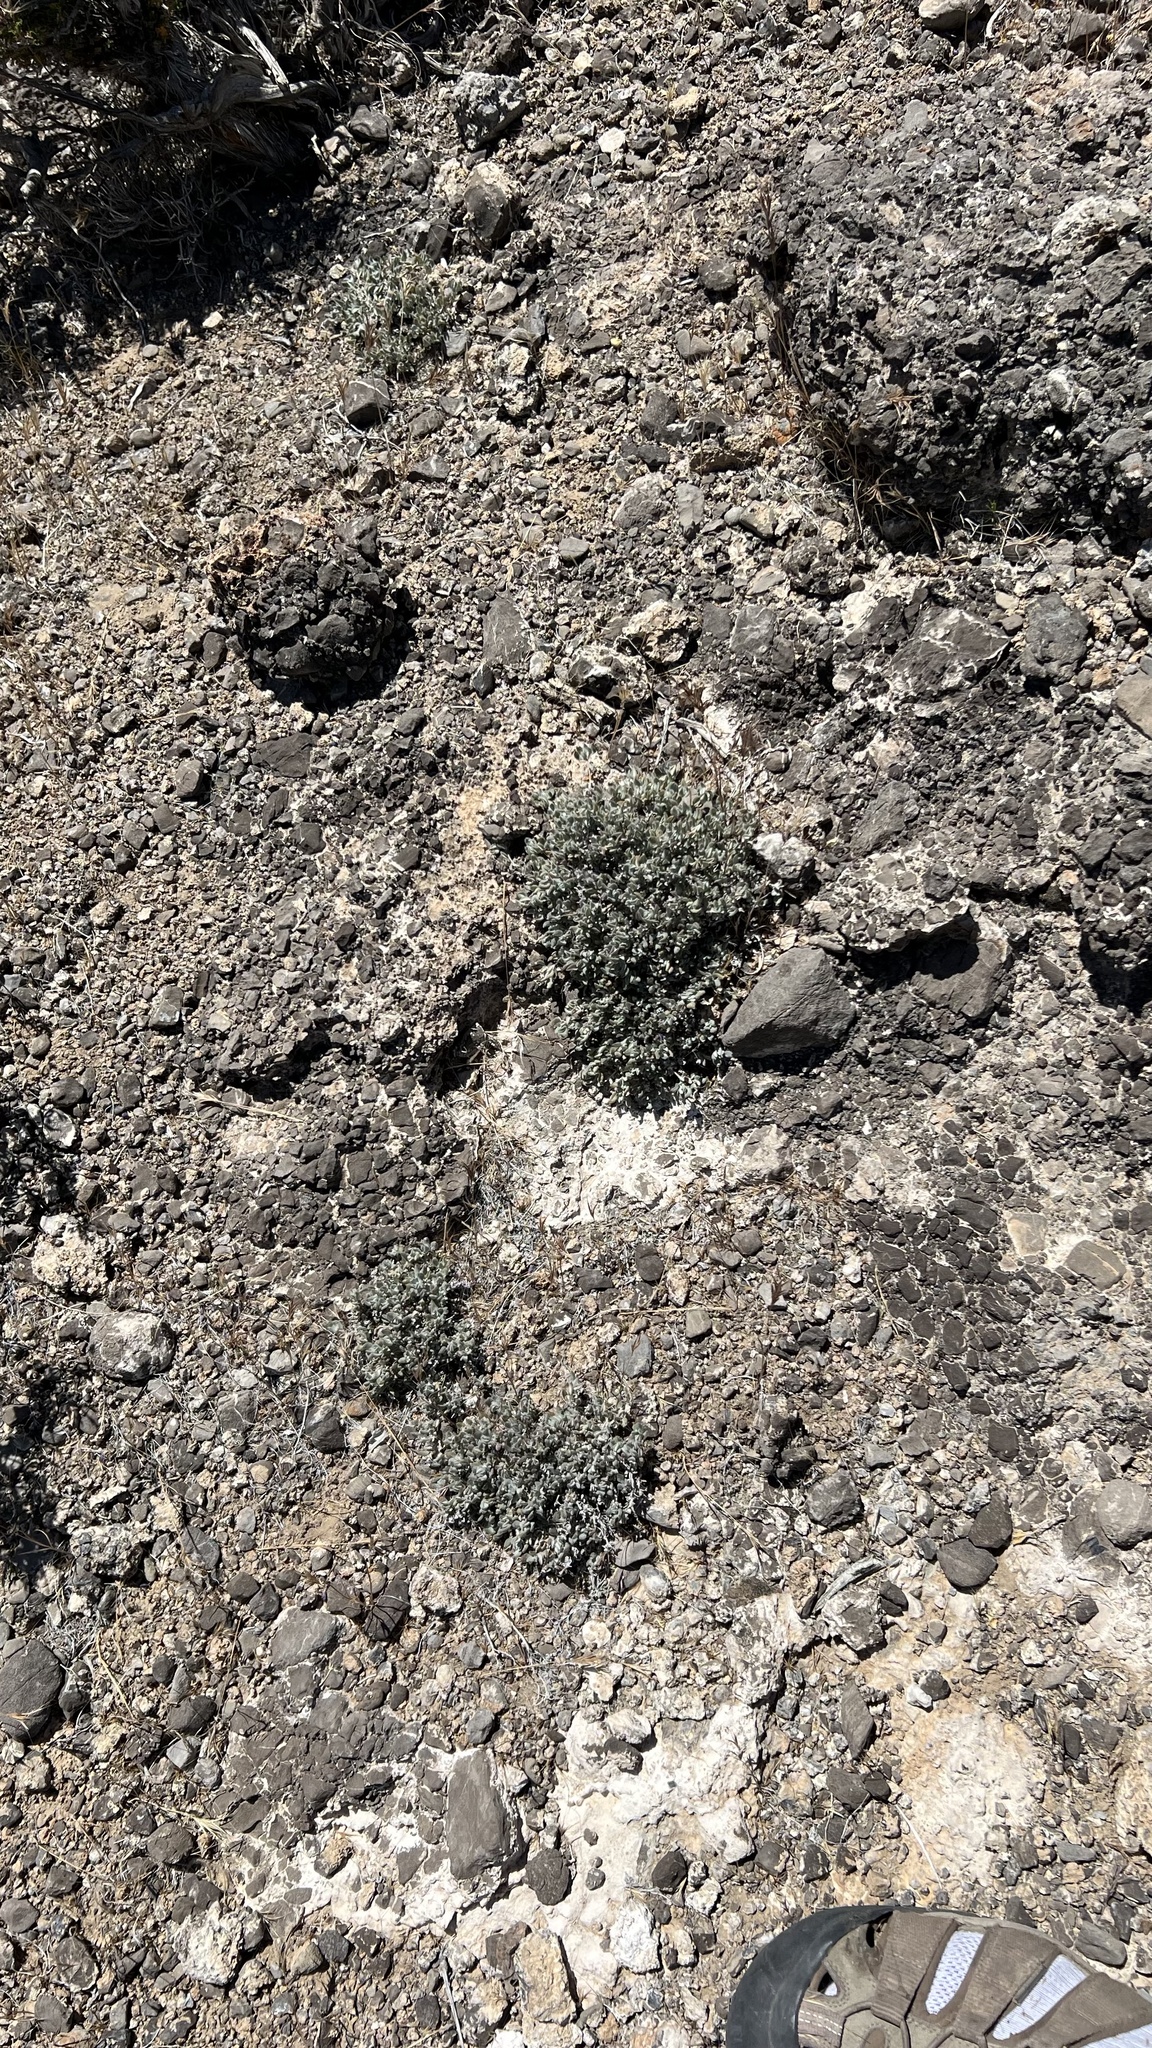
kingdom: Plantae
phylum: Tracheophyta
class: Magnoliopsida
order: Boraginales
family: Ehretiaceae
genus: Tiquilia
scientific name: Tiquilia canescens
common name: Hairy tiquilia
